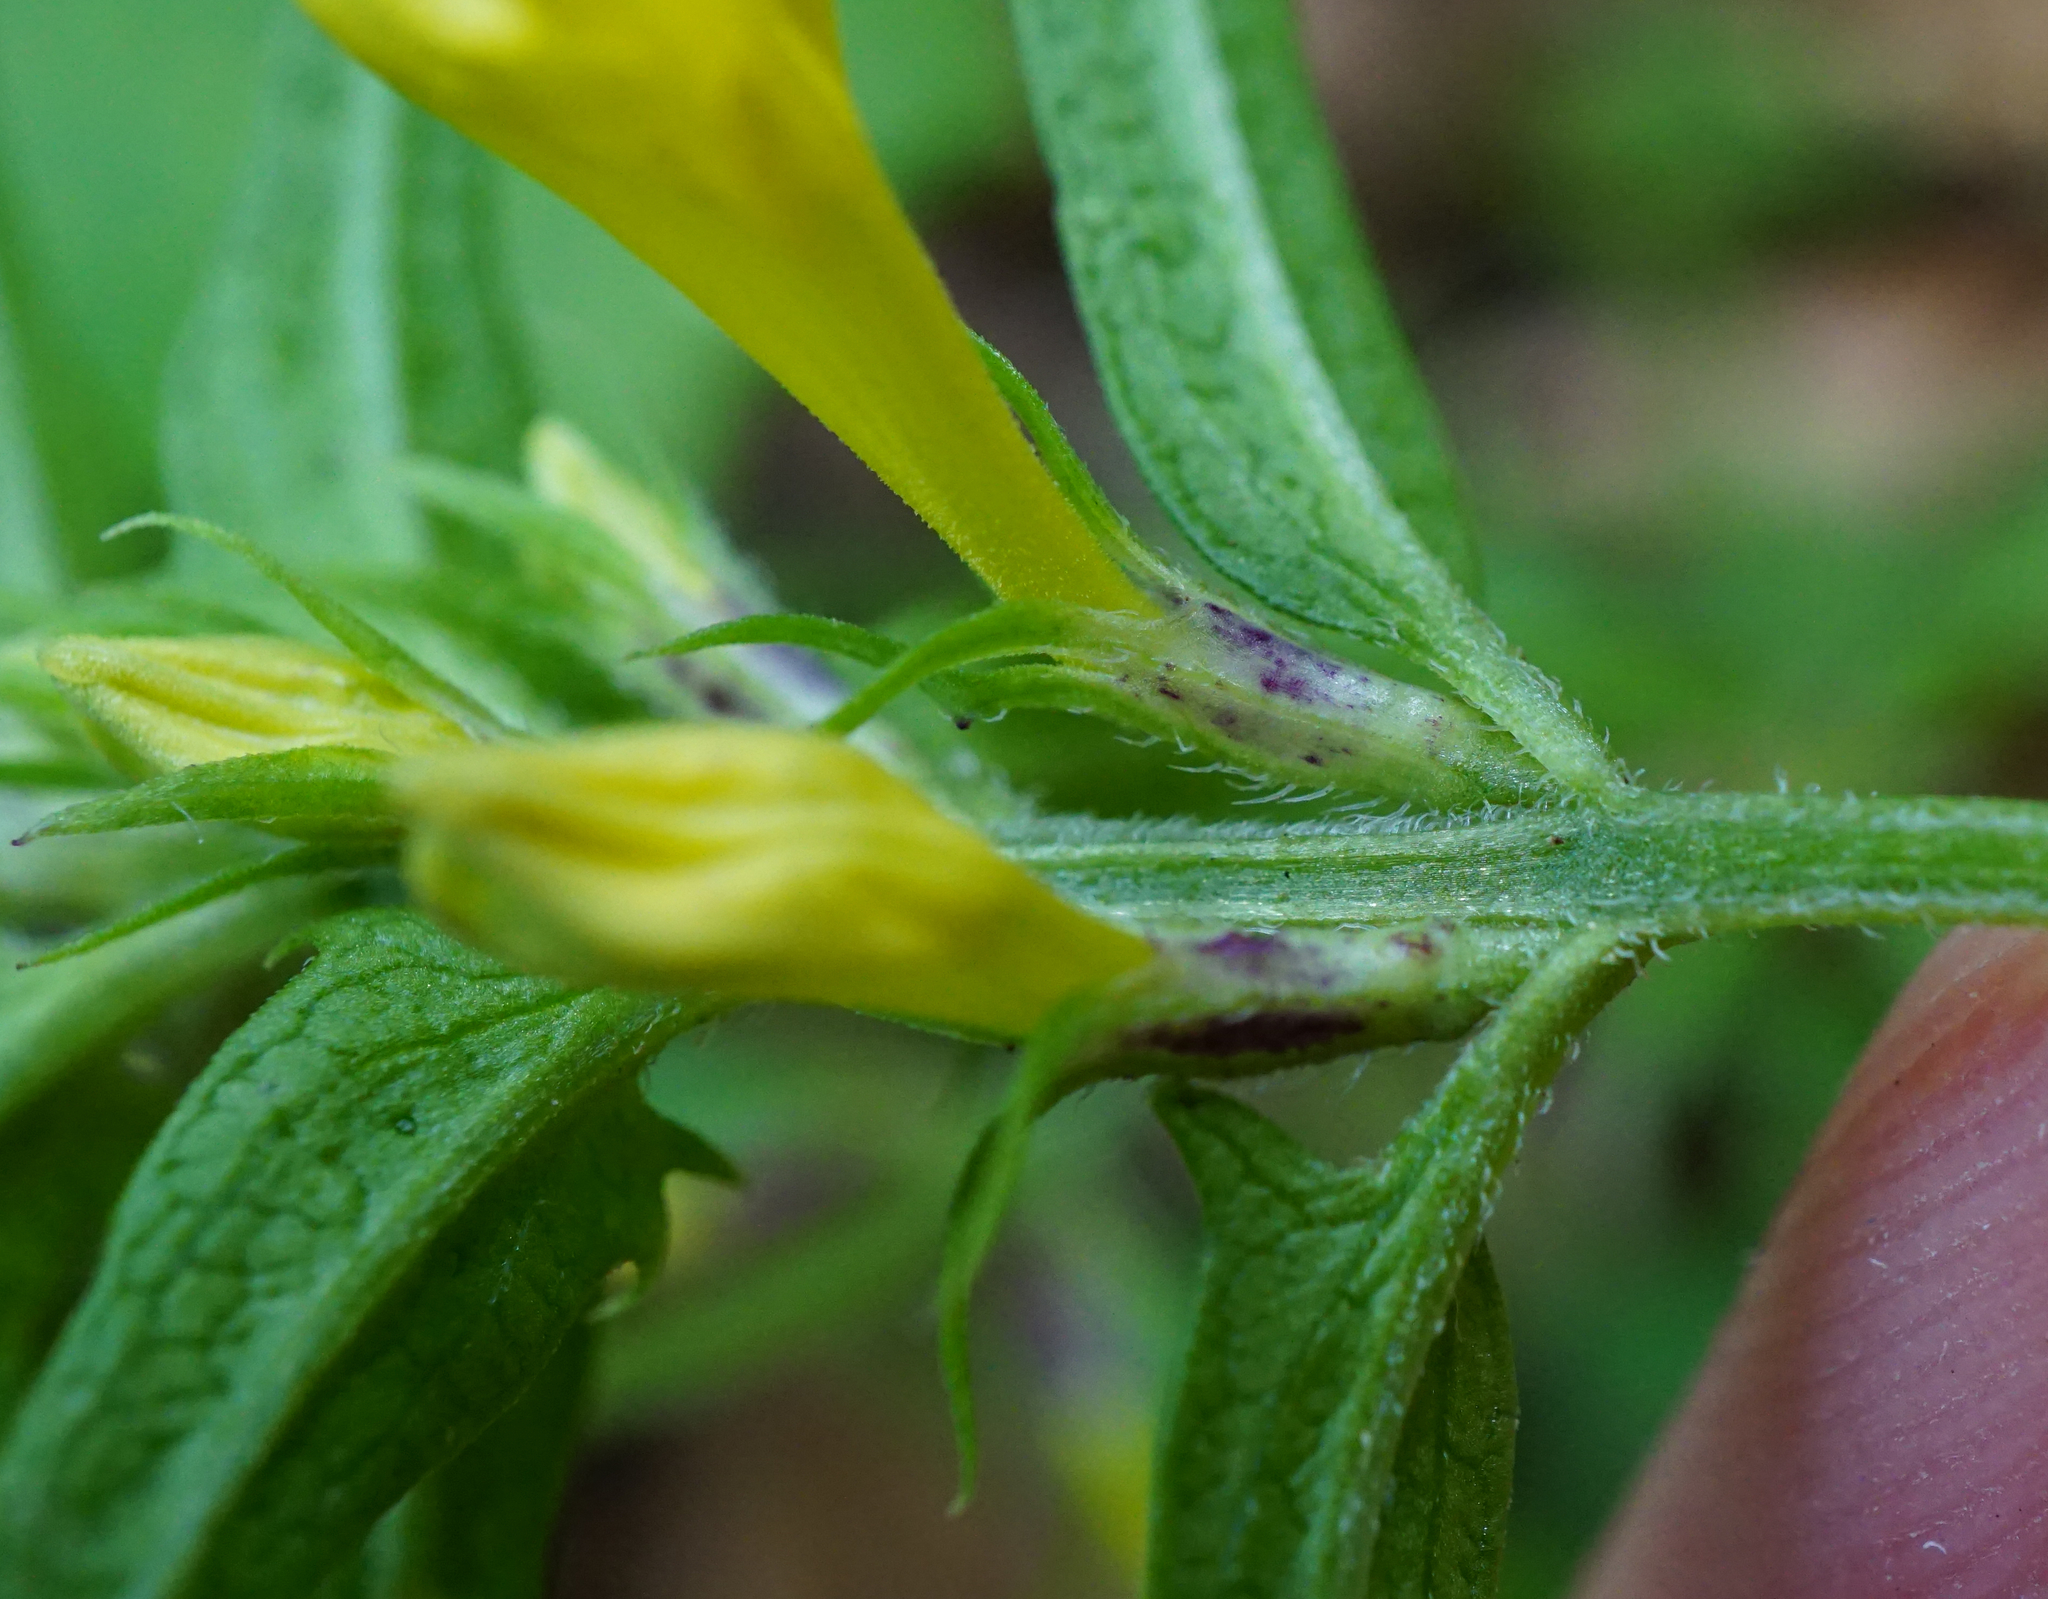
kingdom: Plantae
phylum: Tracheophyta
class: Magnoliopsida
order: Lamiales
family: Orobanchaceae
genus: Melampyrum
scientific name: Melampyrum subalpinum
